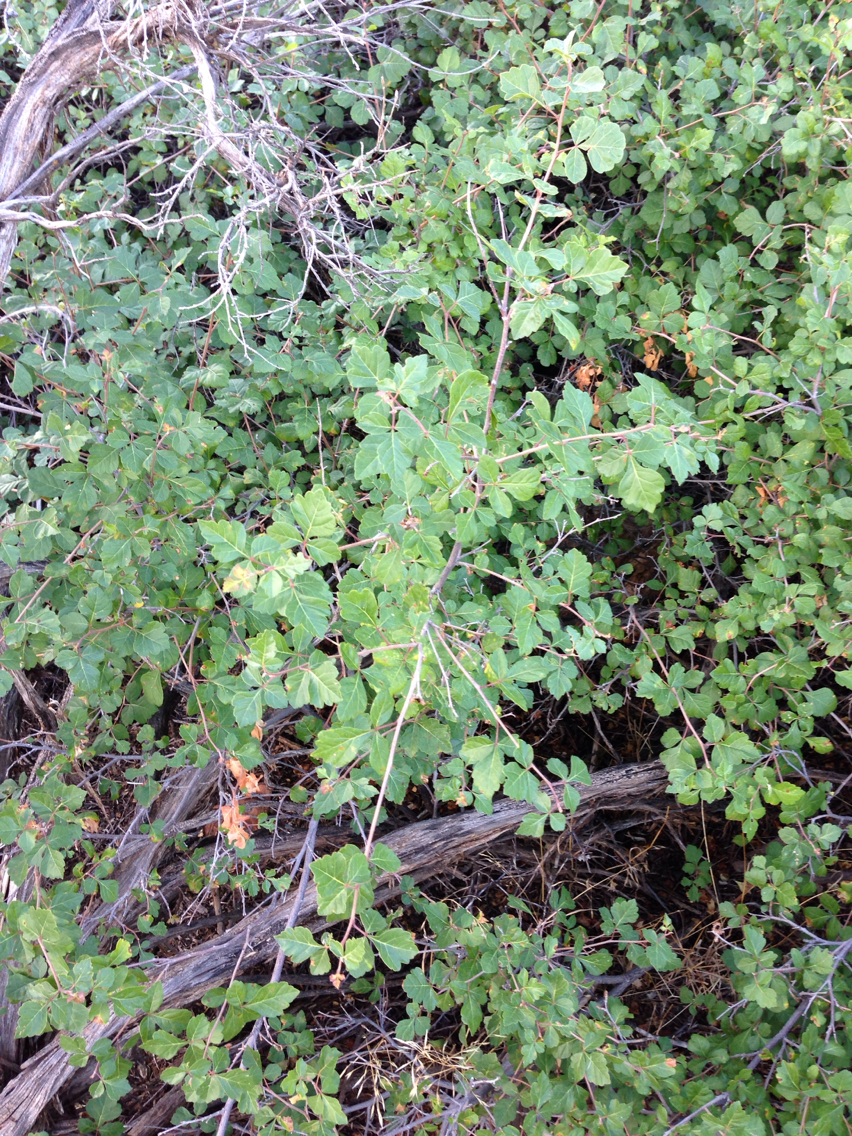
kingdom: Plantae
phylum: Tracheophyta
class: Magnoliopsida
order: Sapindales
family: Anacardiaceae
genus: Rhus
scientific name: Rhus aromatica
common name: Aromatic sumac
